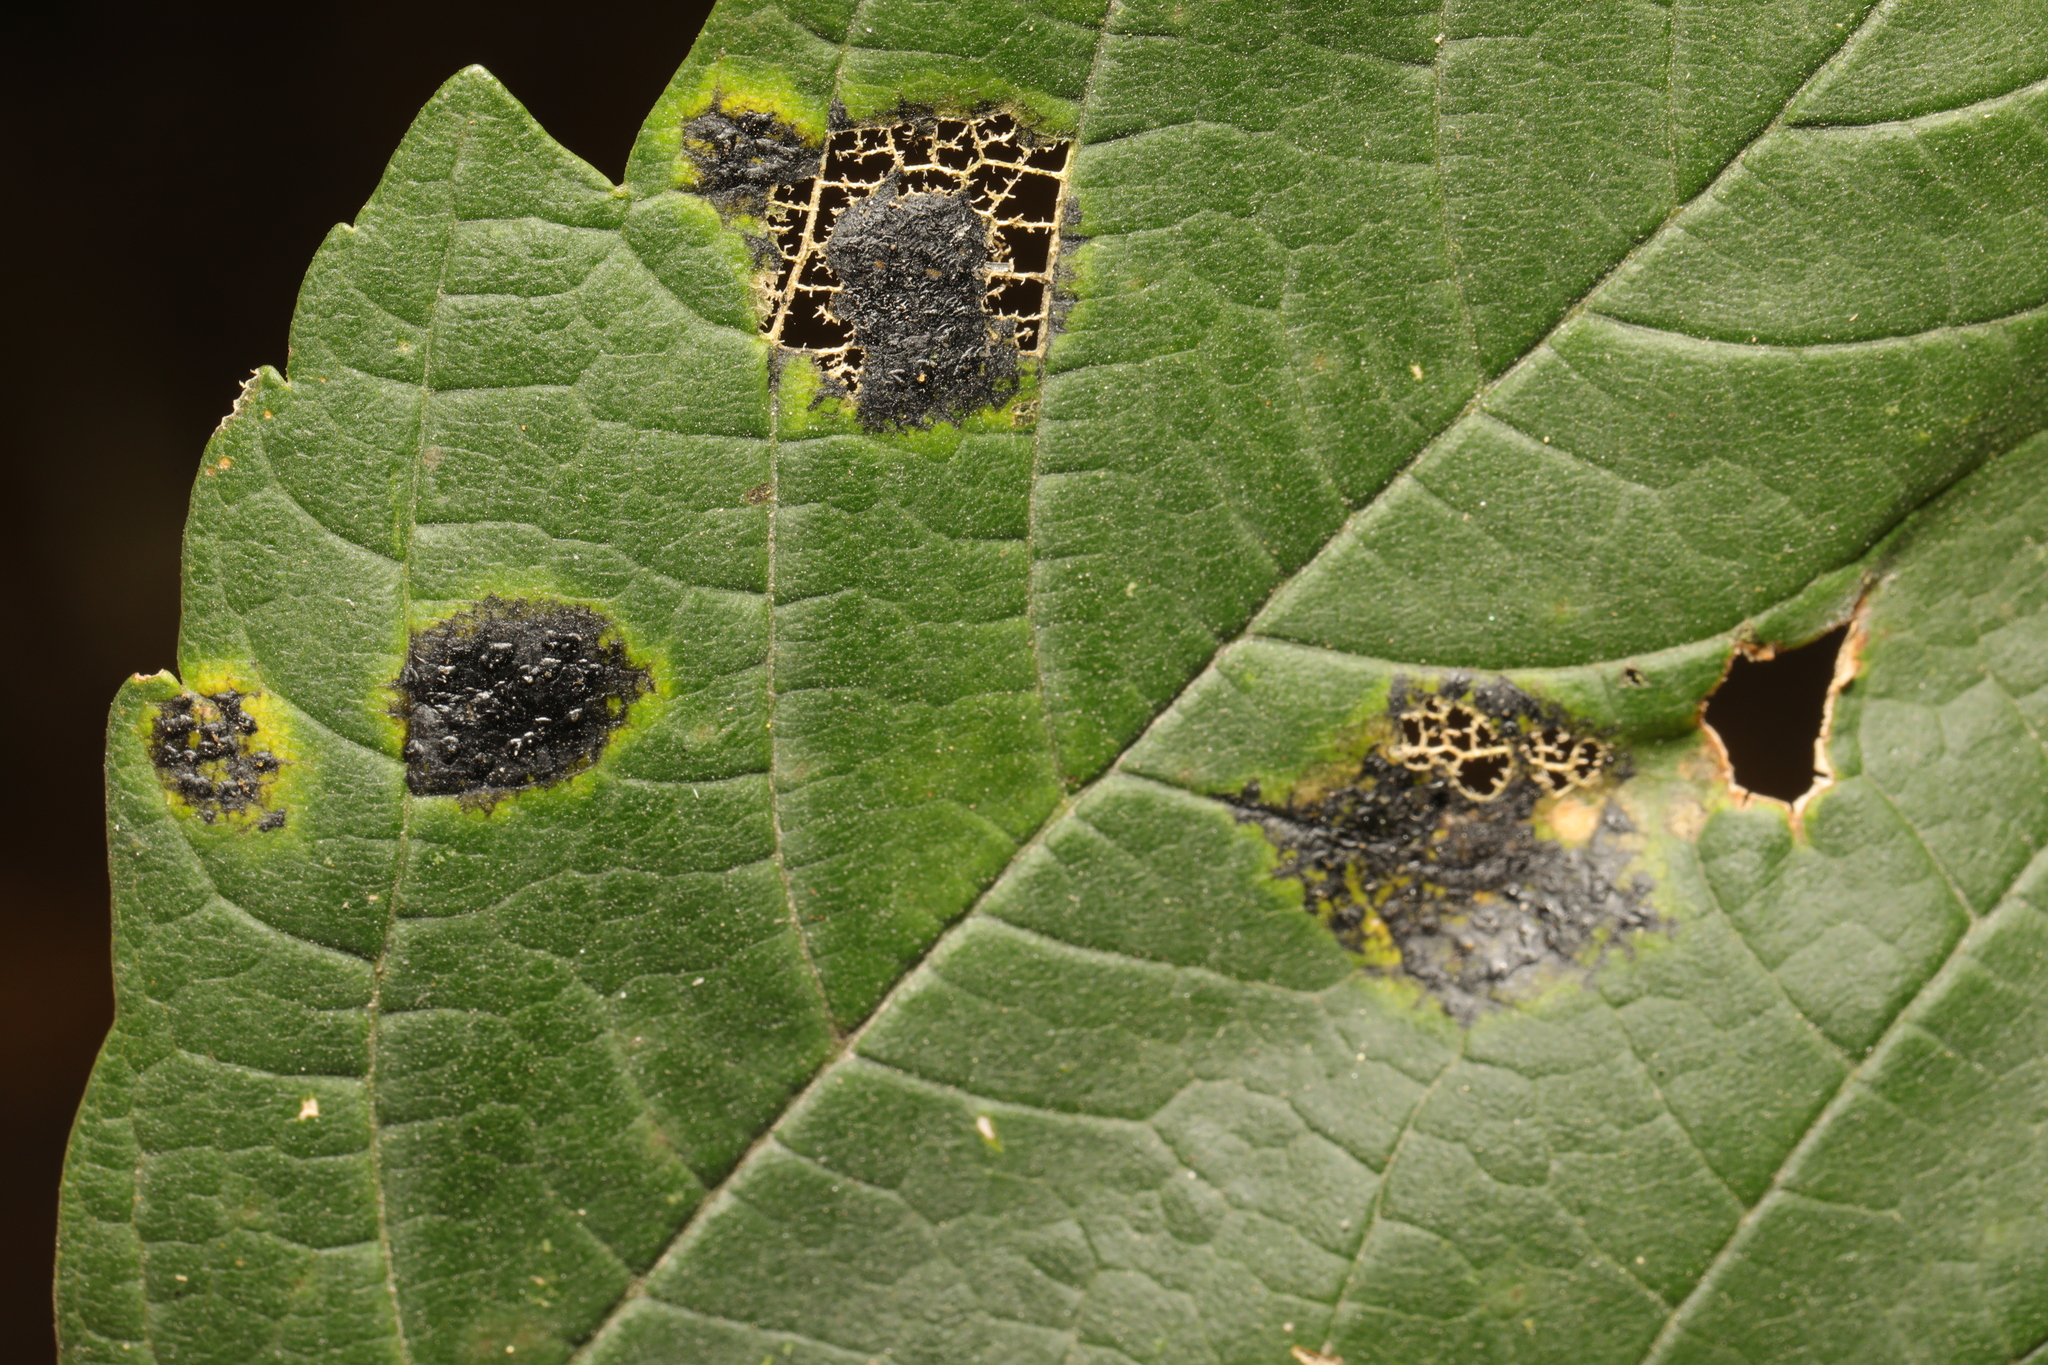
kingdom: Fungi
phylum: Ascomycota
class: Leotiomycetes
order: Rhytismatales
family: Rhytismataceae
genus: Rhytisma
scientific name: Rhytisma acerinum
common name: European tar spot
